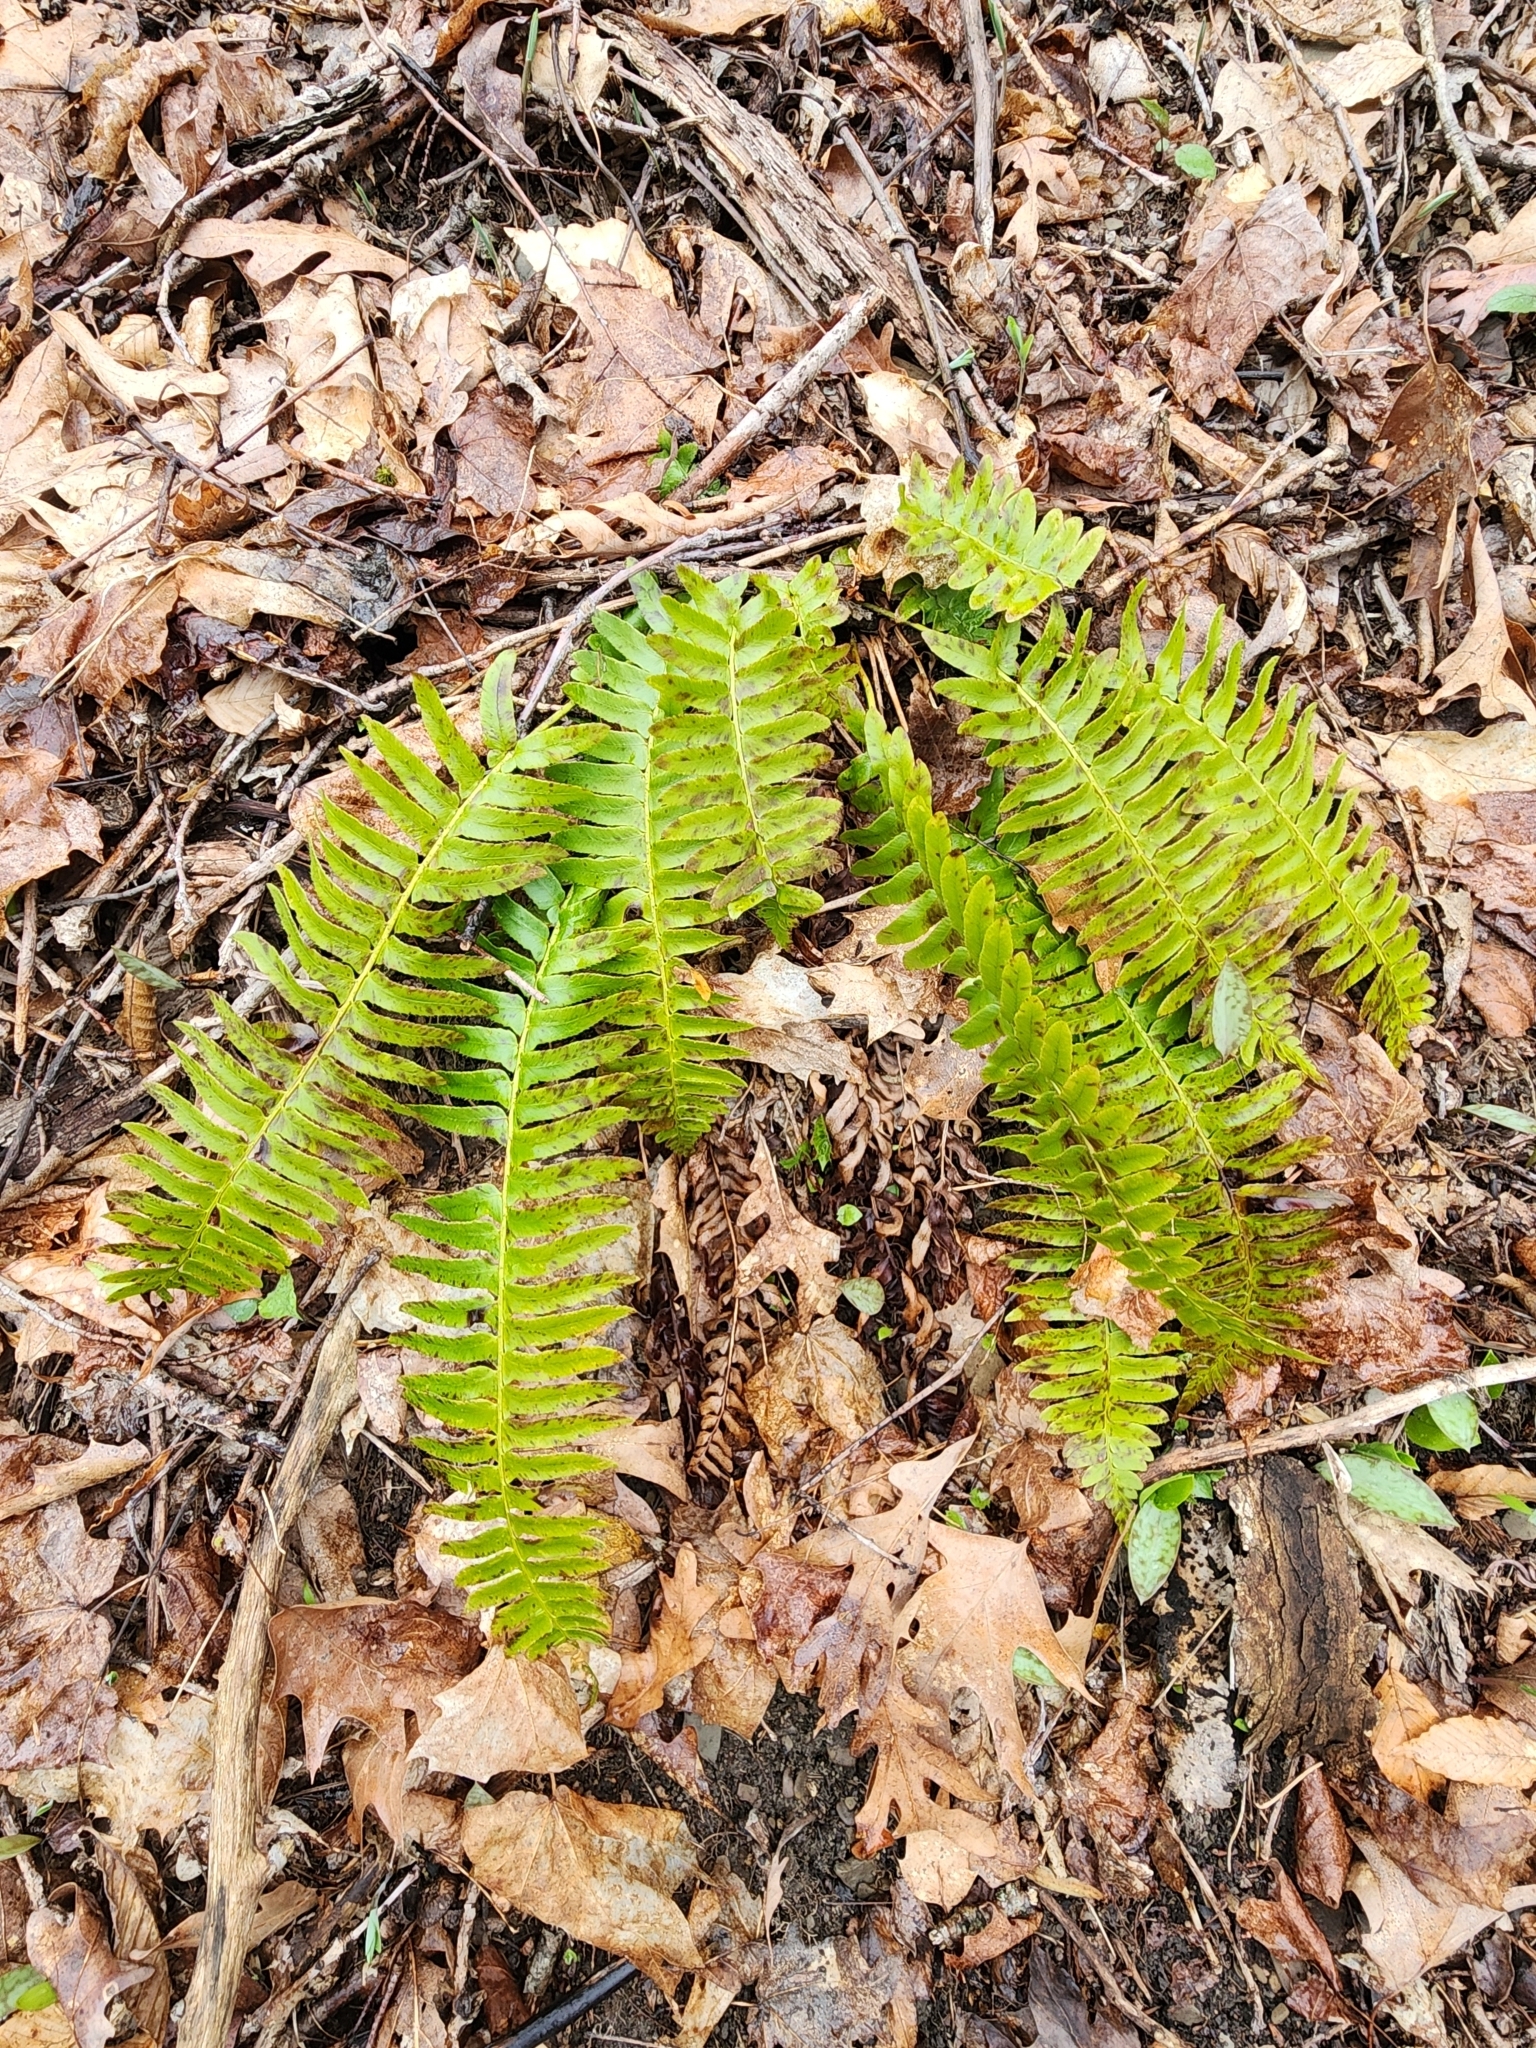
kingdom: Plantae
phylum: Tracheophyta
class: Polypodiopsida
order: Polypodiales
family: Dryopteridaceae
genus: Polystichum
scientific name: Polystichum acrostichoides
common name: Christmas fern
